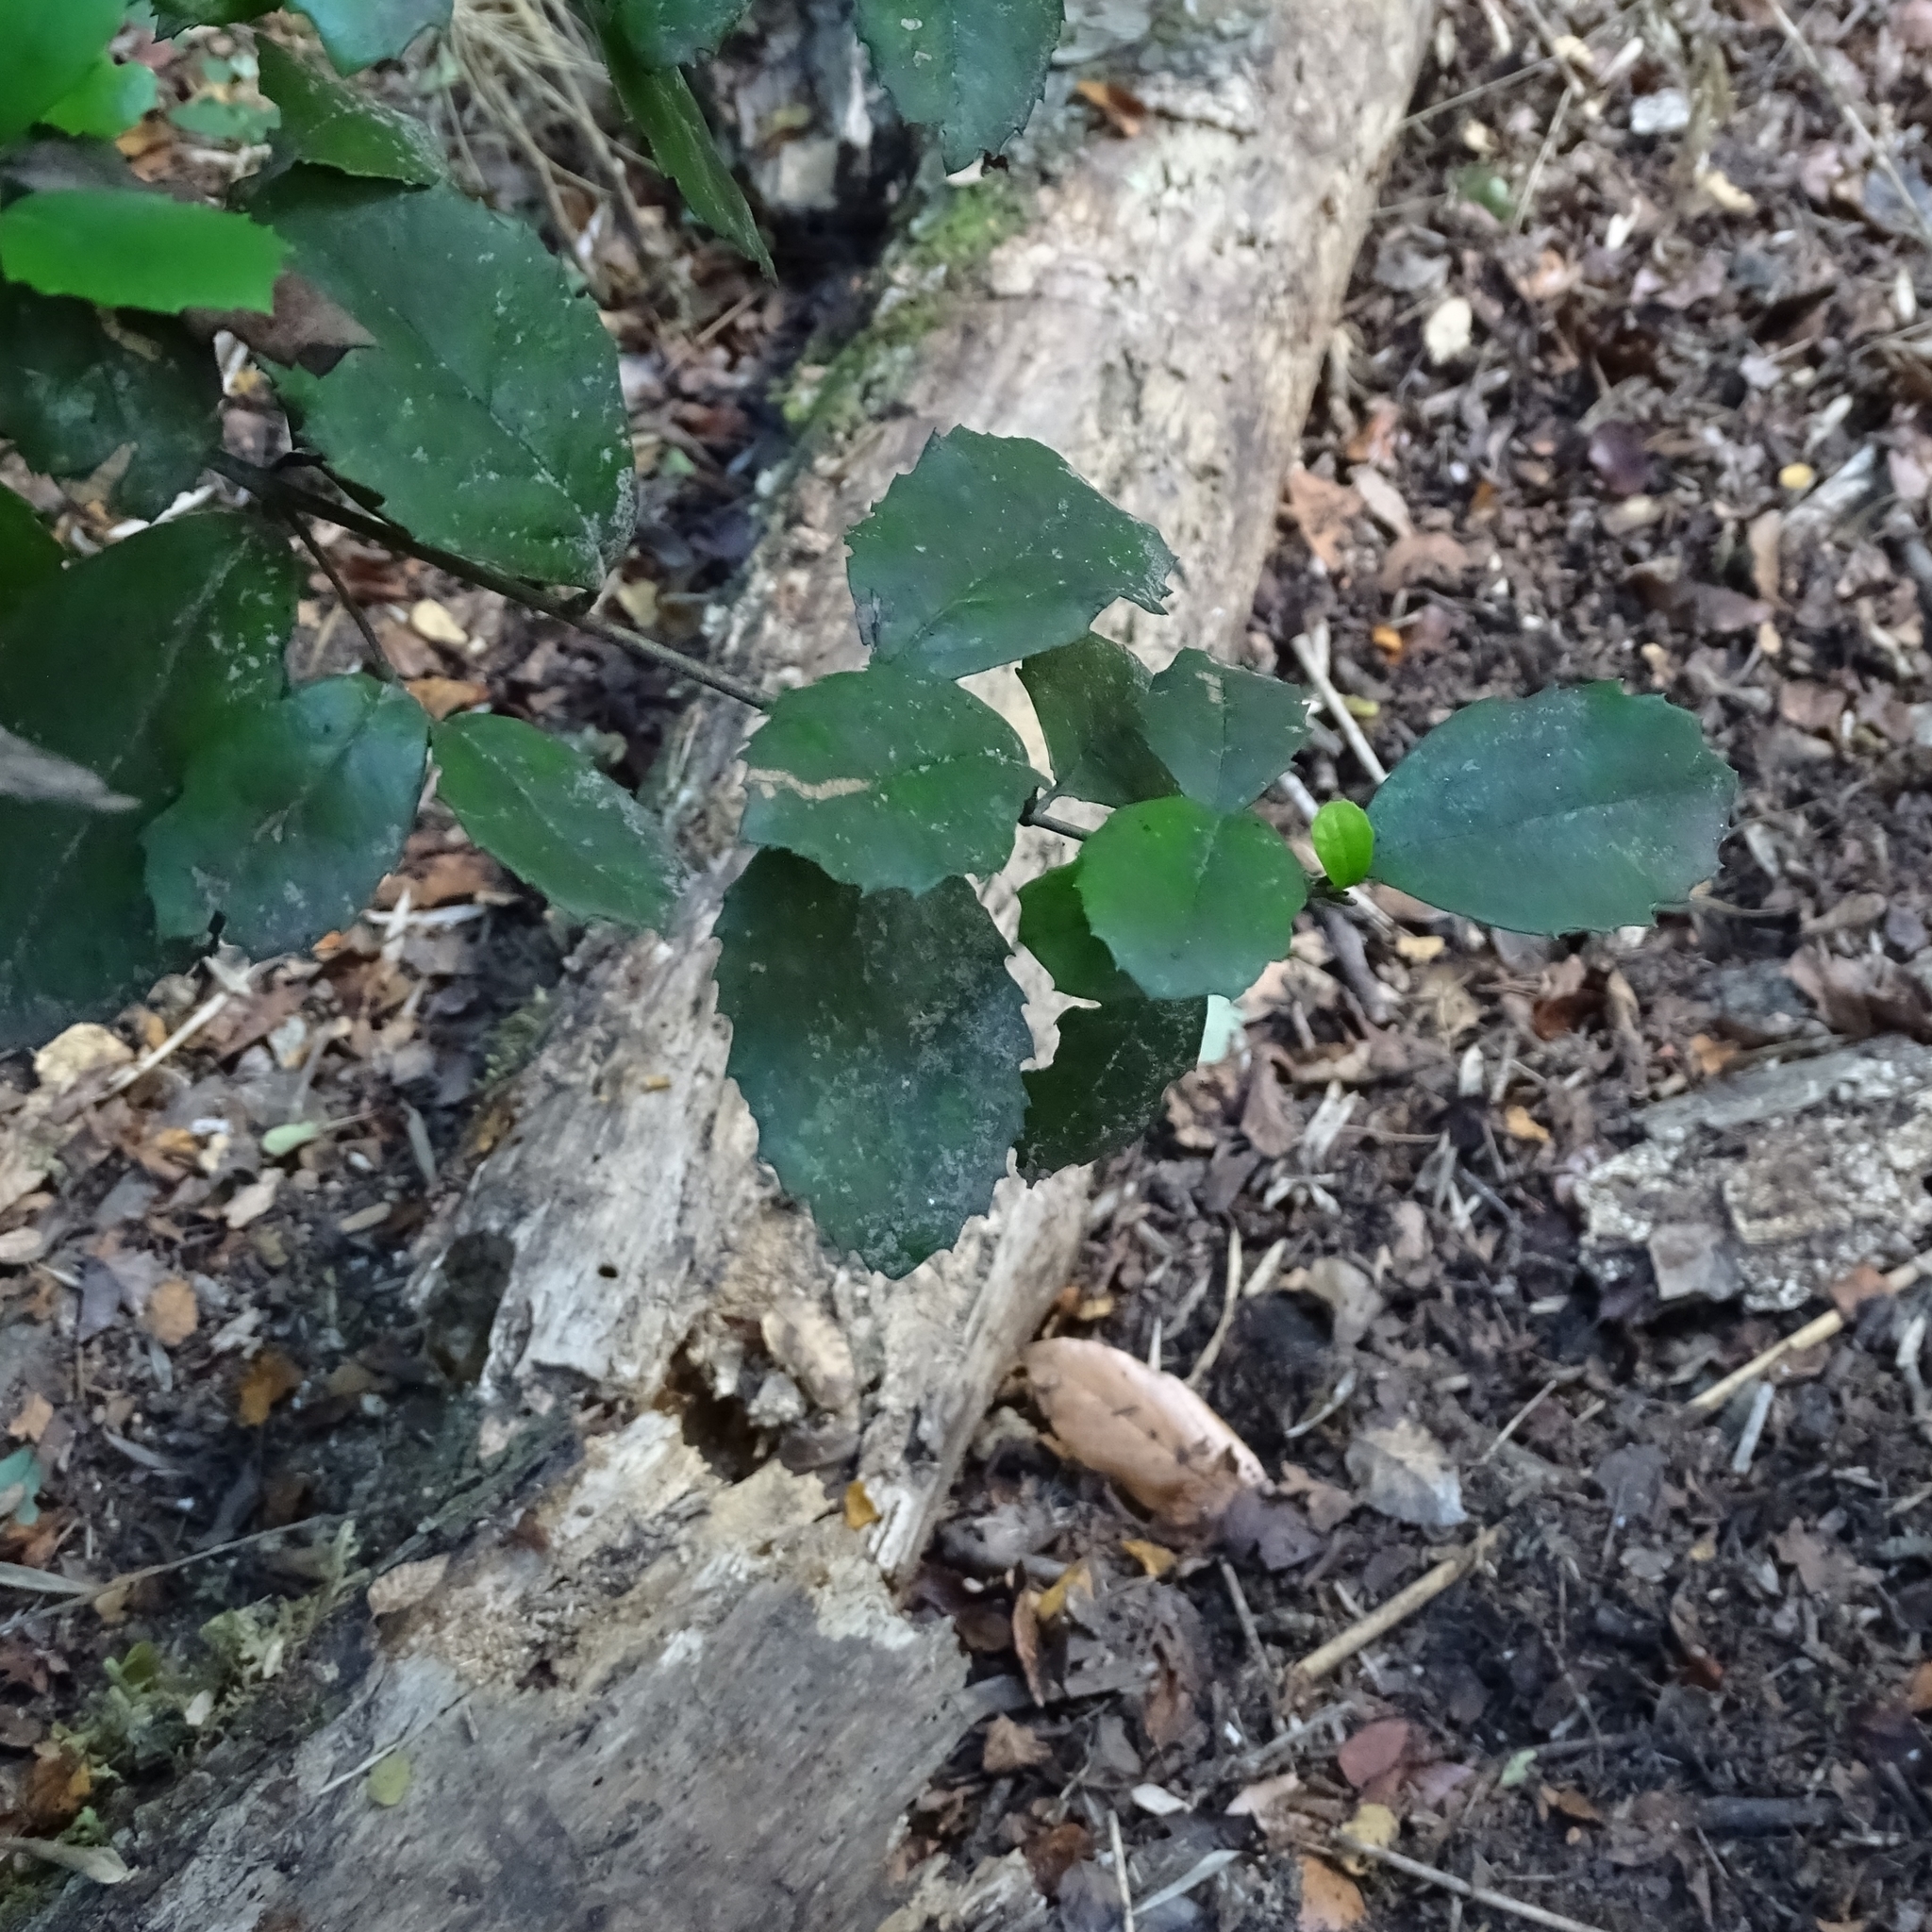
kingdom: Plantae
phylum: Tracheophyta
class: Magnoliopsida
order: Proteales
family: Proteaceae
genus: Lomatia
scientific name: Lomatia dentata
